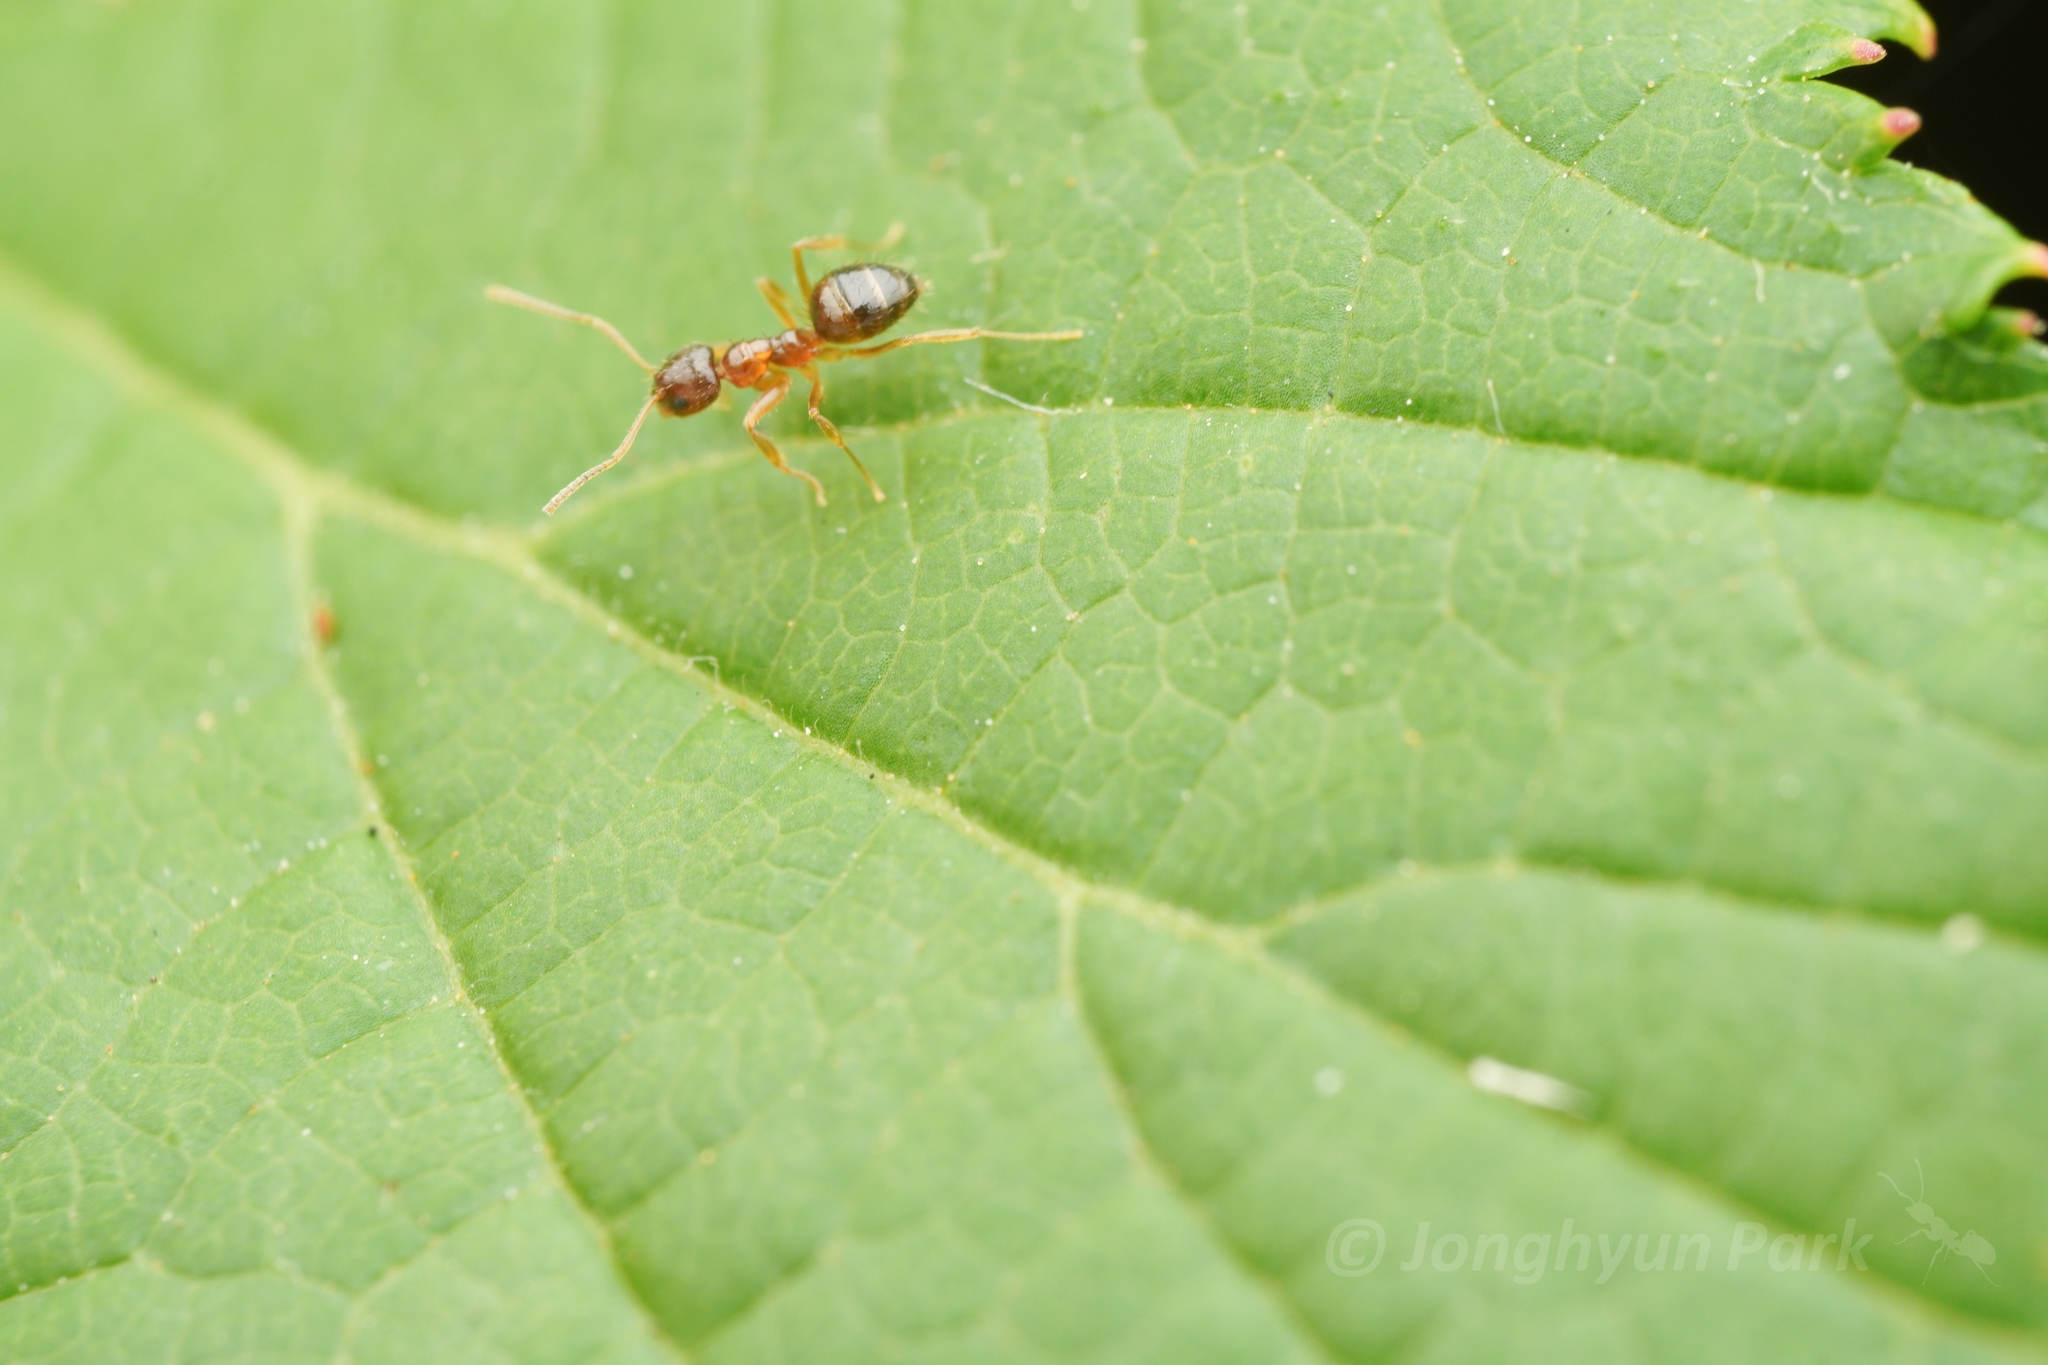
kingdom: Animalia
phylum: Arthropoda
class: Insecta
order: Hymenoptera
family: Formicidae
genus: Paratrechina
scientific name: Paratrechina flavipes
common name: Eastern asian formicine ant
